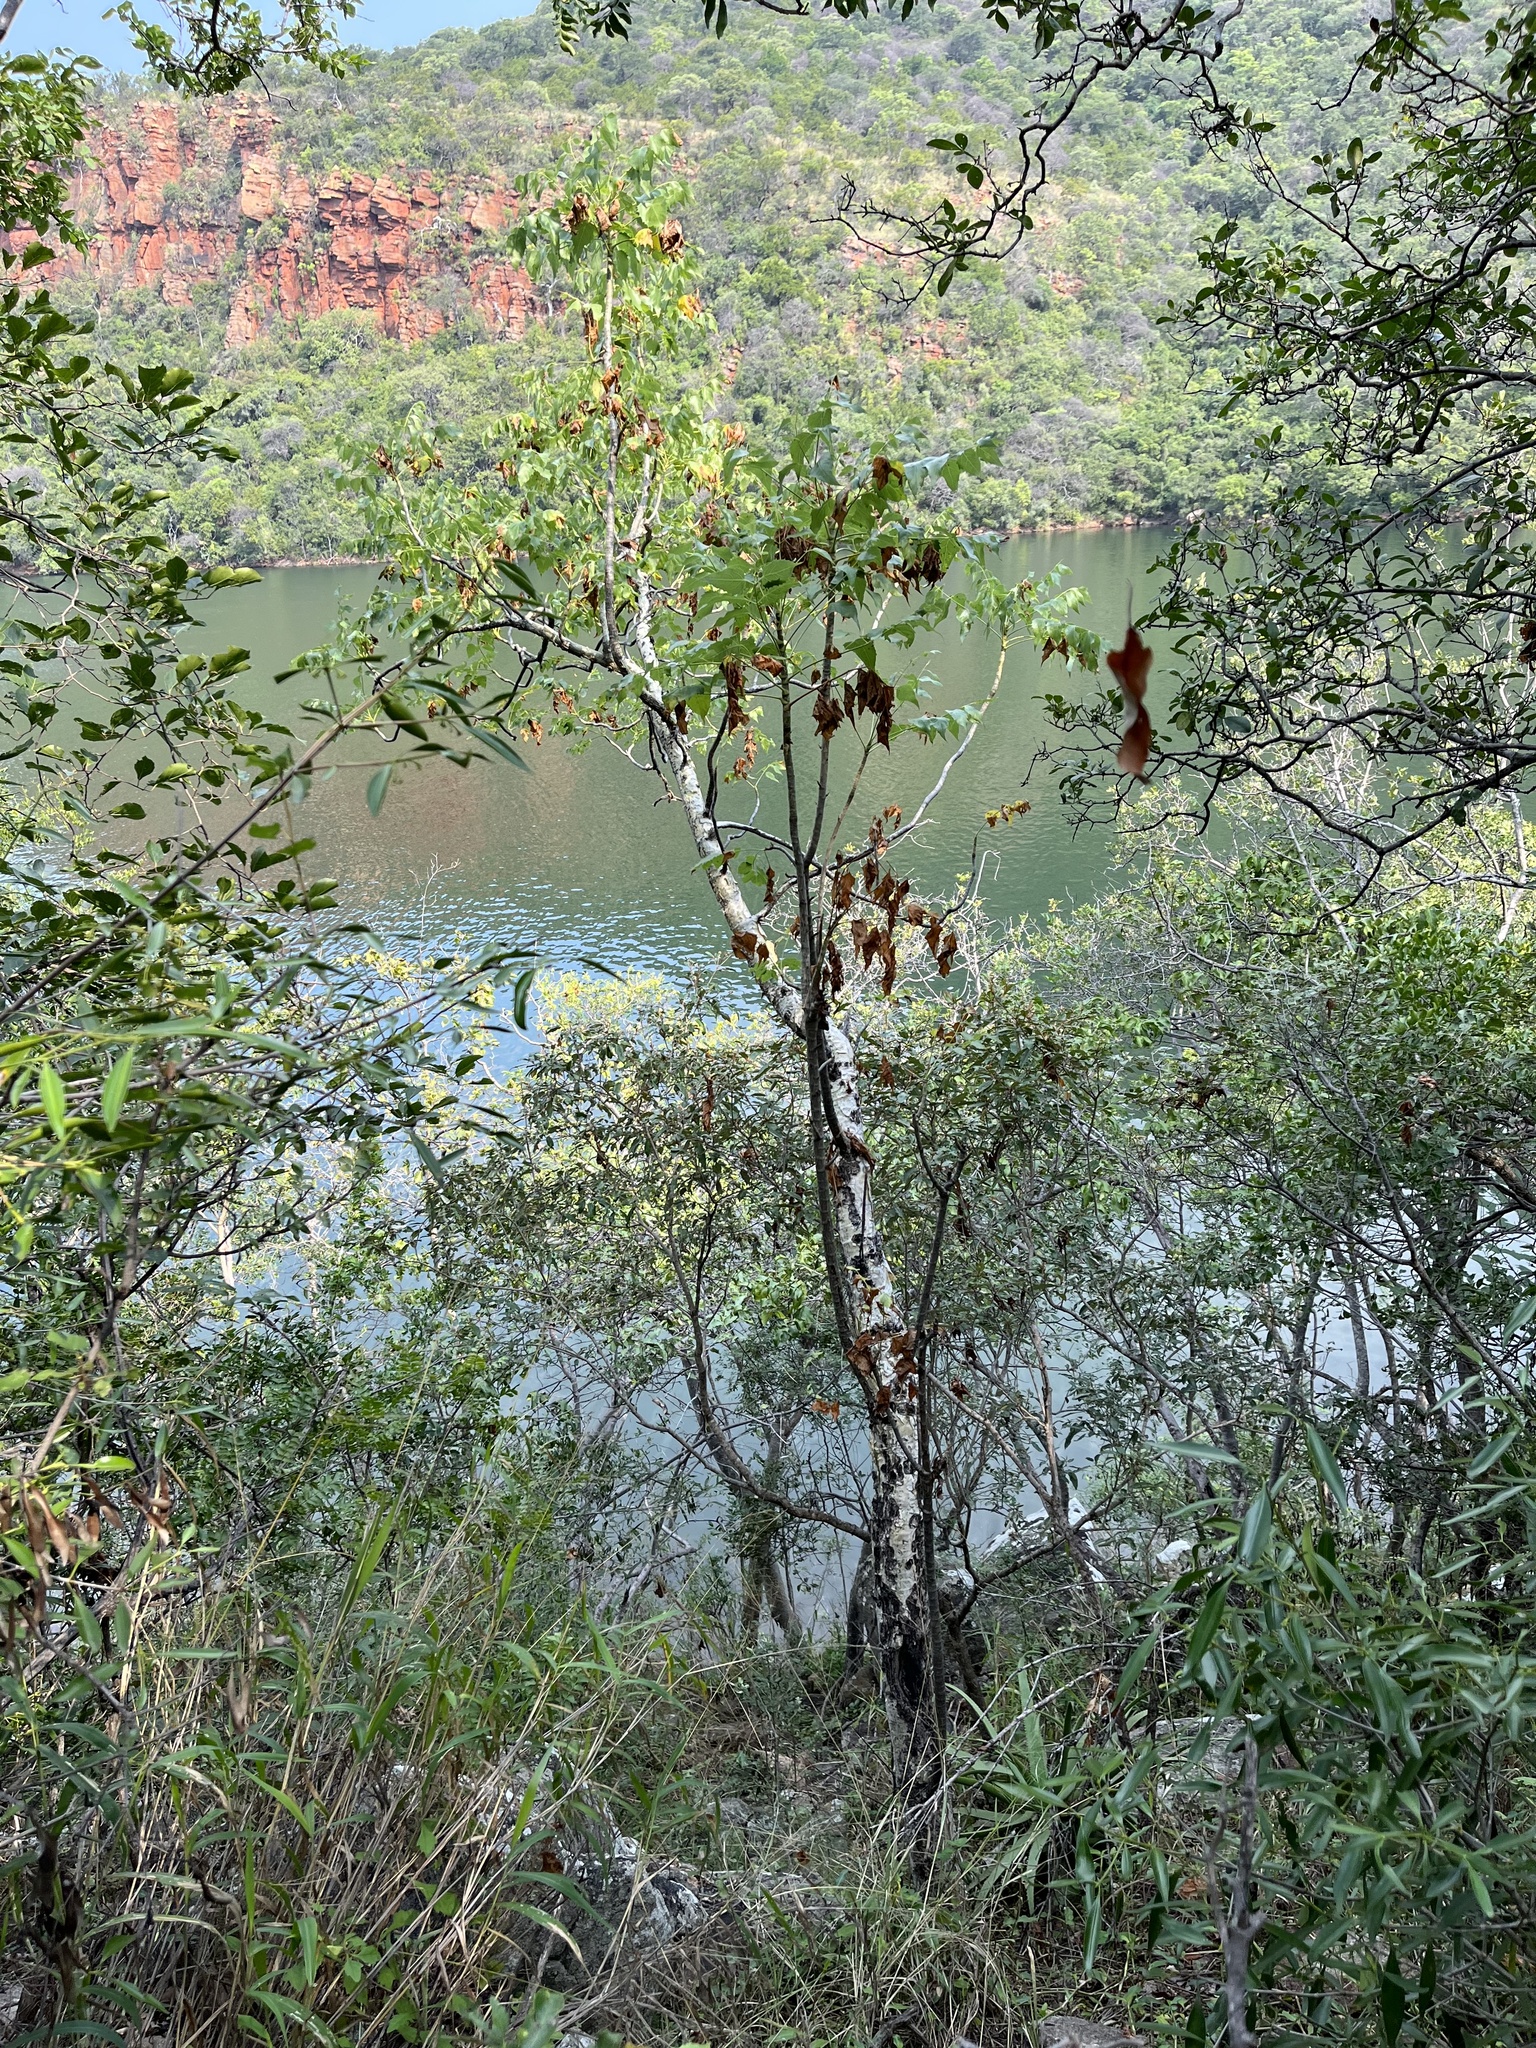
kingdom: Plantae
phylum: Tracheophyta
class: Magnoliopsida
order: Apiales
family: Apiaceae
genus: Steganotaenia
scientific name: Steganotaenia araliacea
